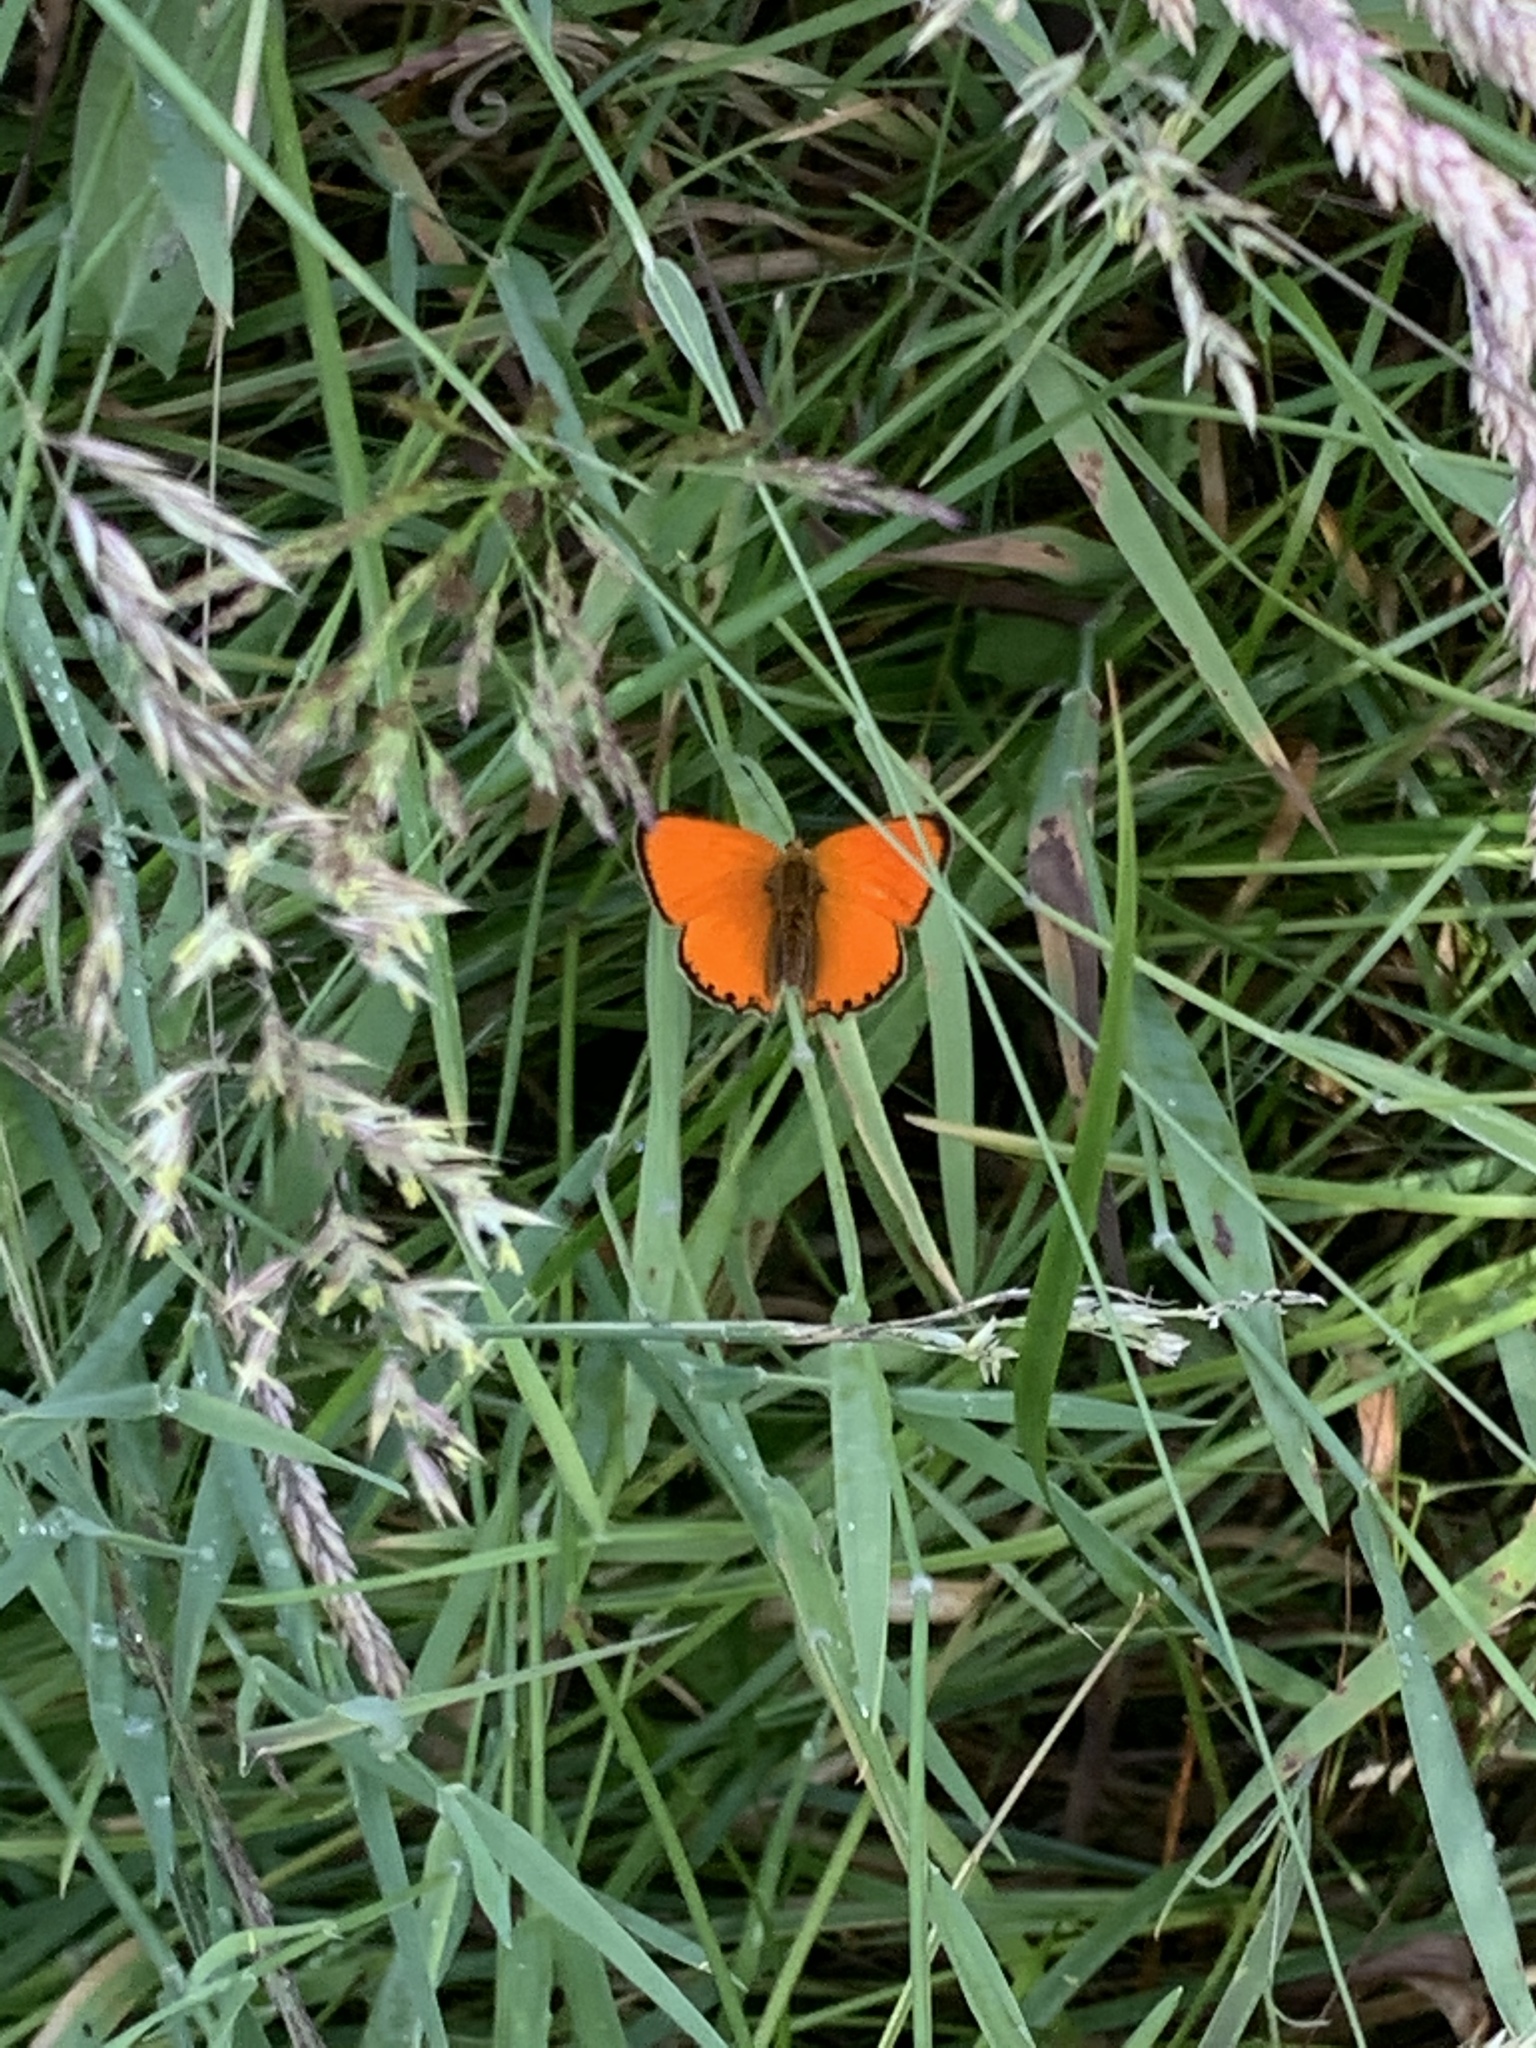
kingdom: Animalia
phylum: Arthropoda
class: Insecta
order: Lepidoptera
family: Lycaenidae
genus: Lycaena
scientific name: Lycaena virgaureae
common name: Scarce copper
